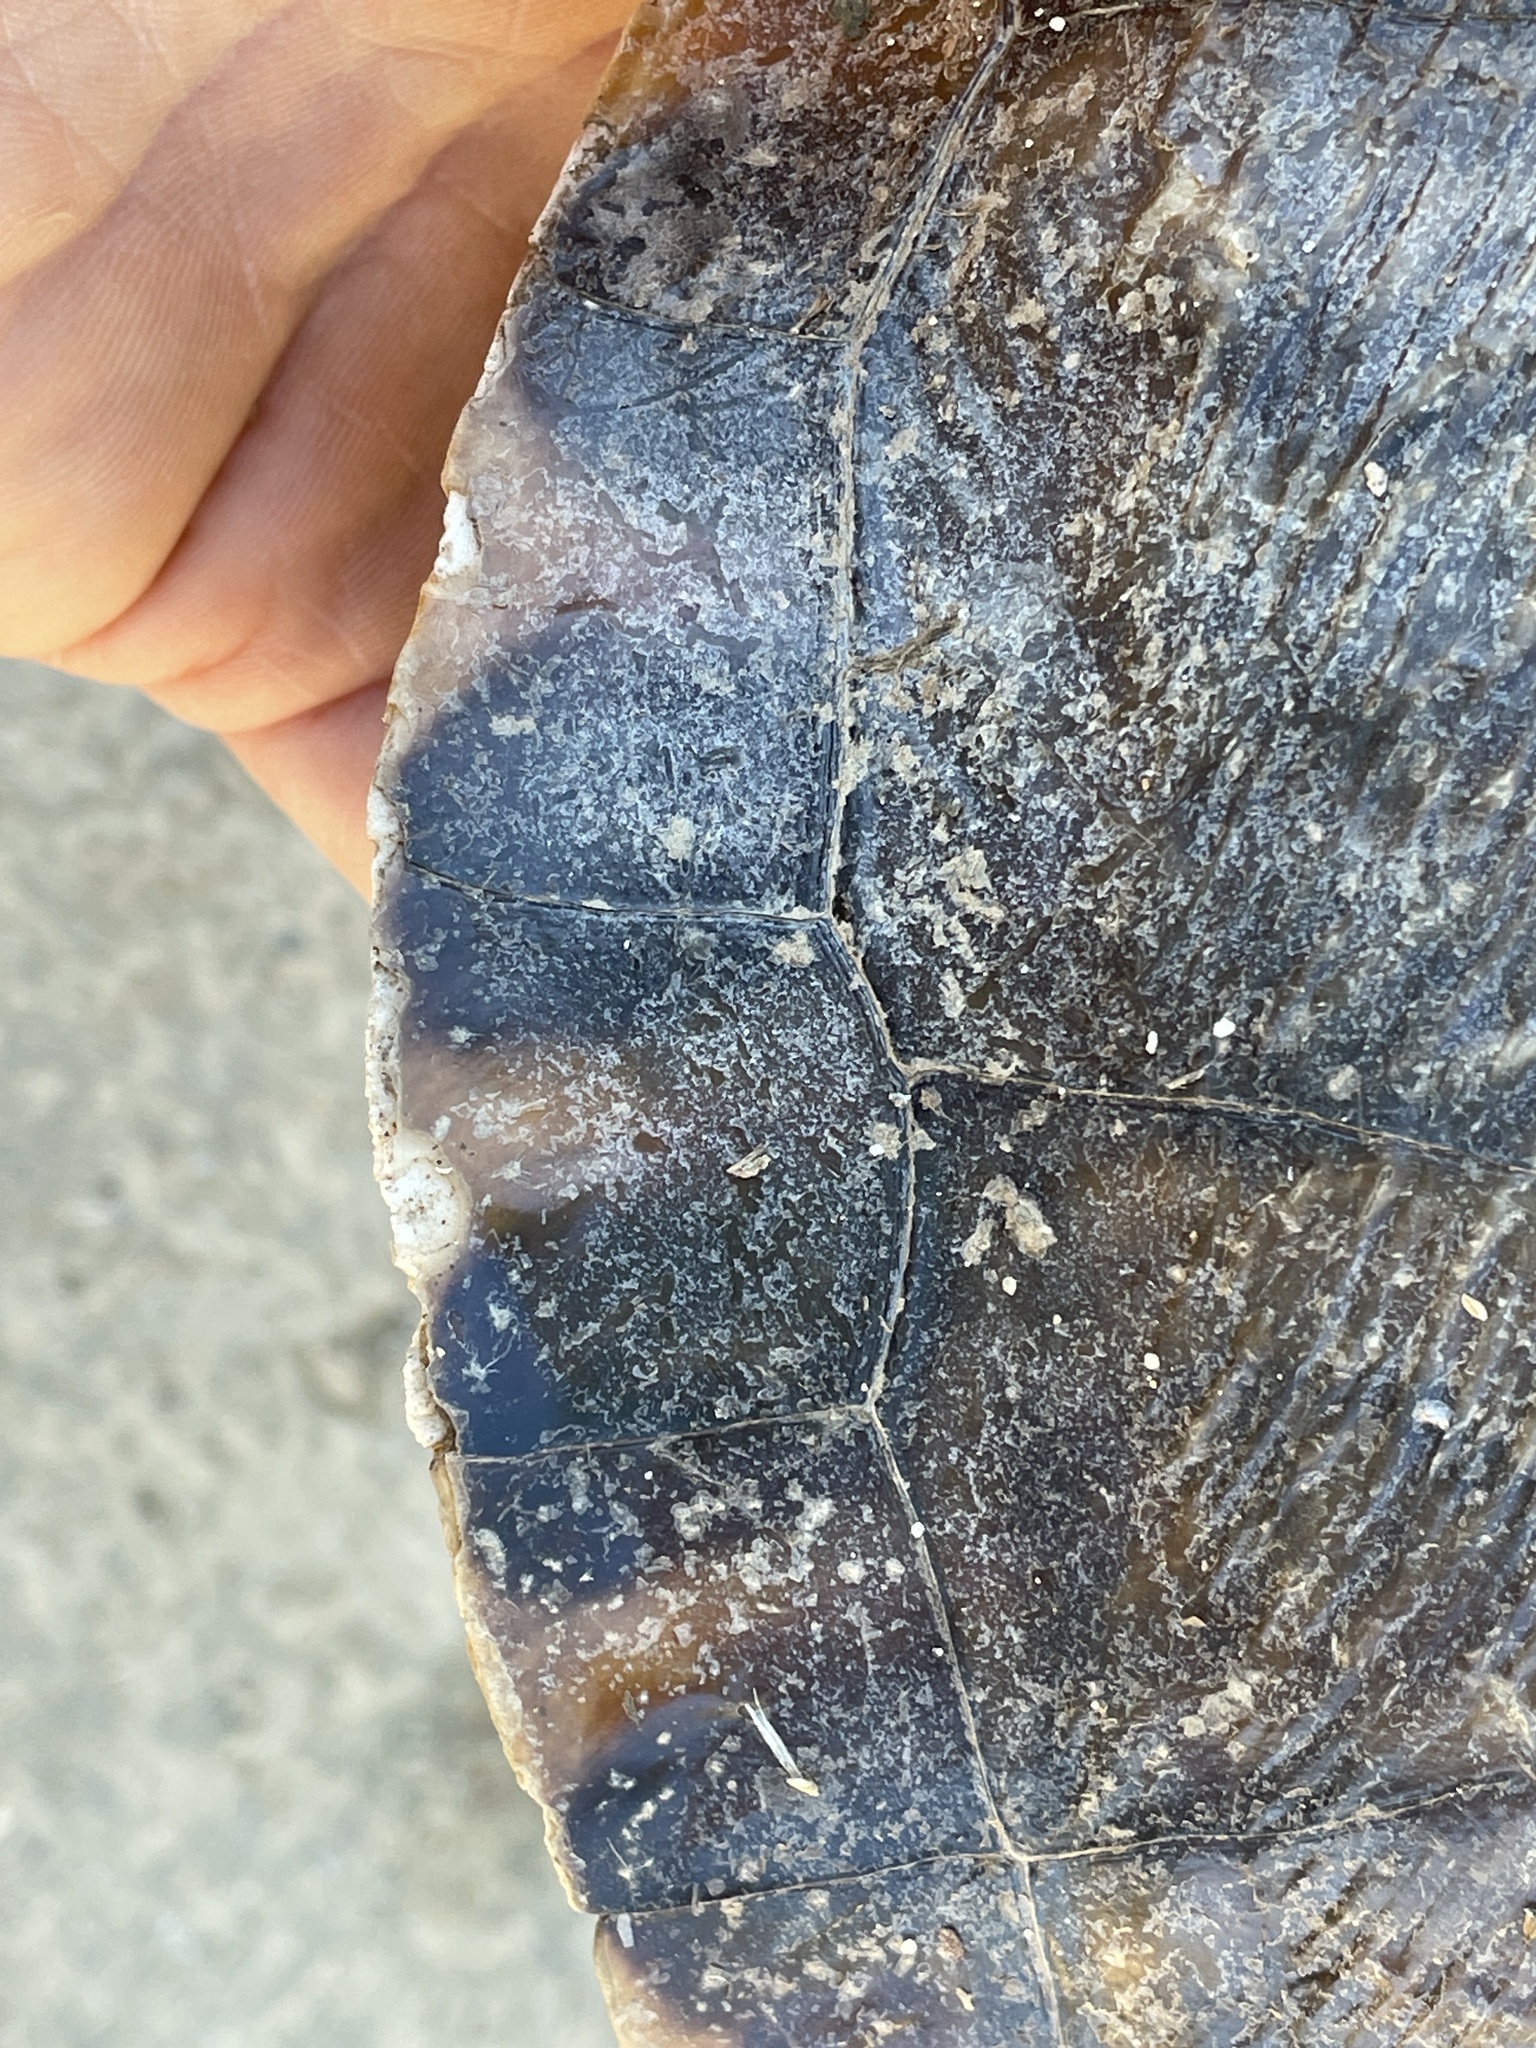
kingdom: Animalia
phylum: Chordata
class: Testudines
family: Emydidae
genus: Trachemys
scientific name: Trachemys scripta
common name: Slider
